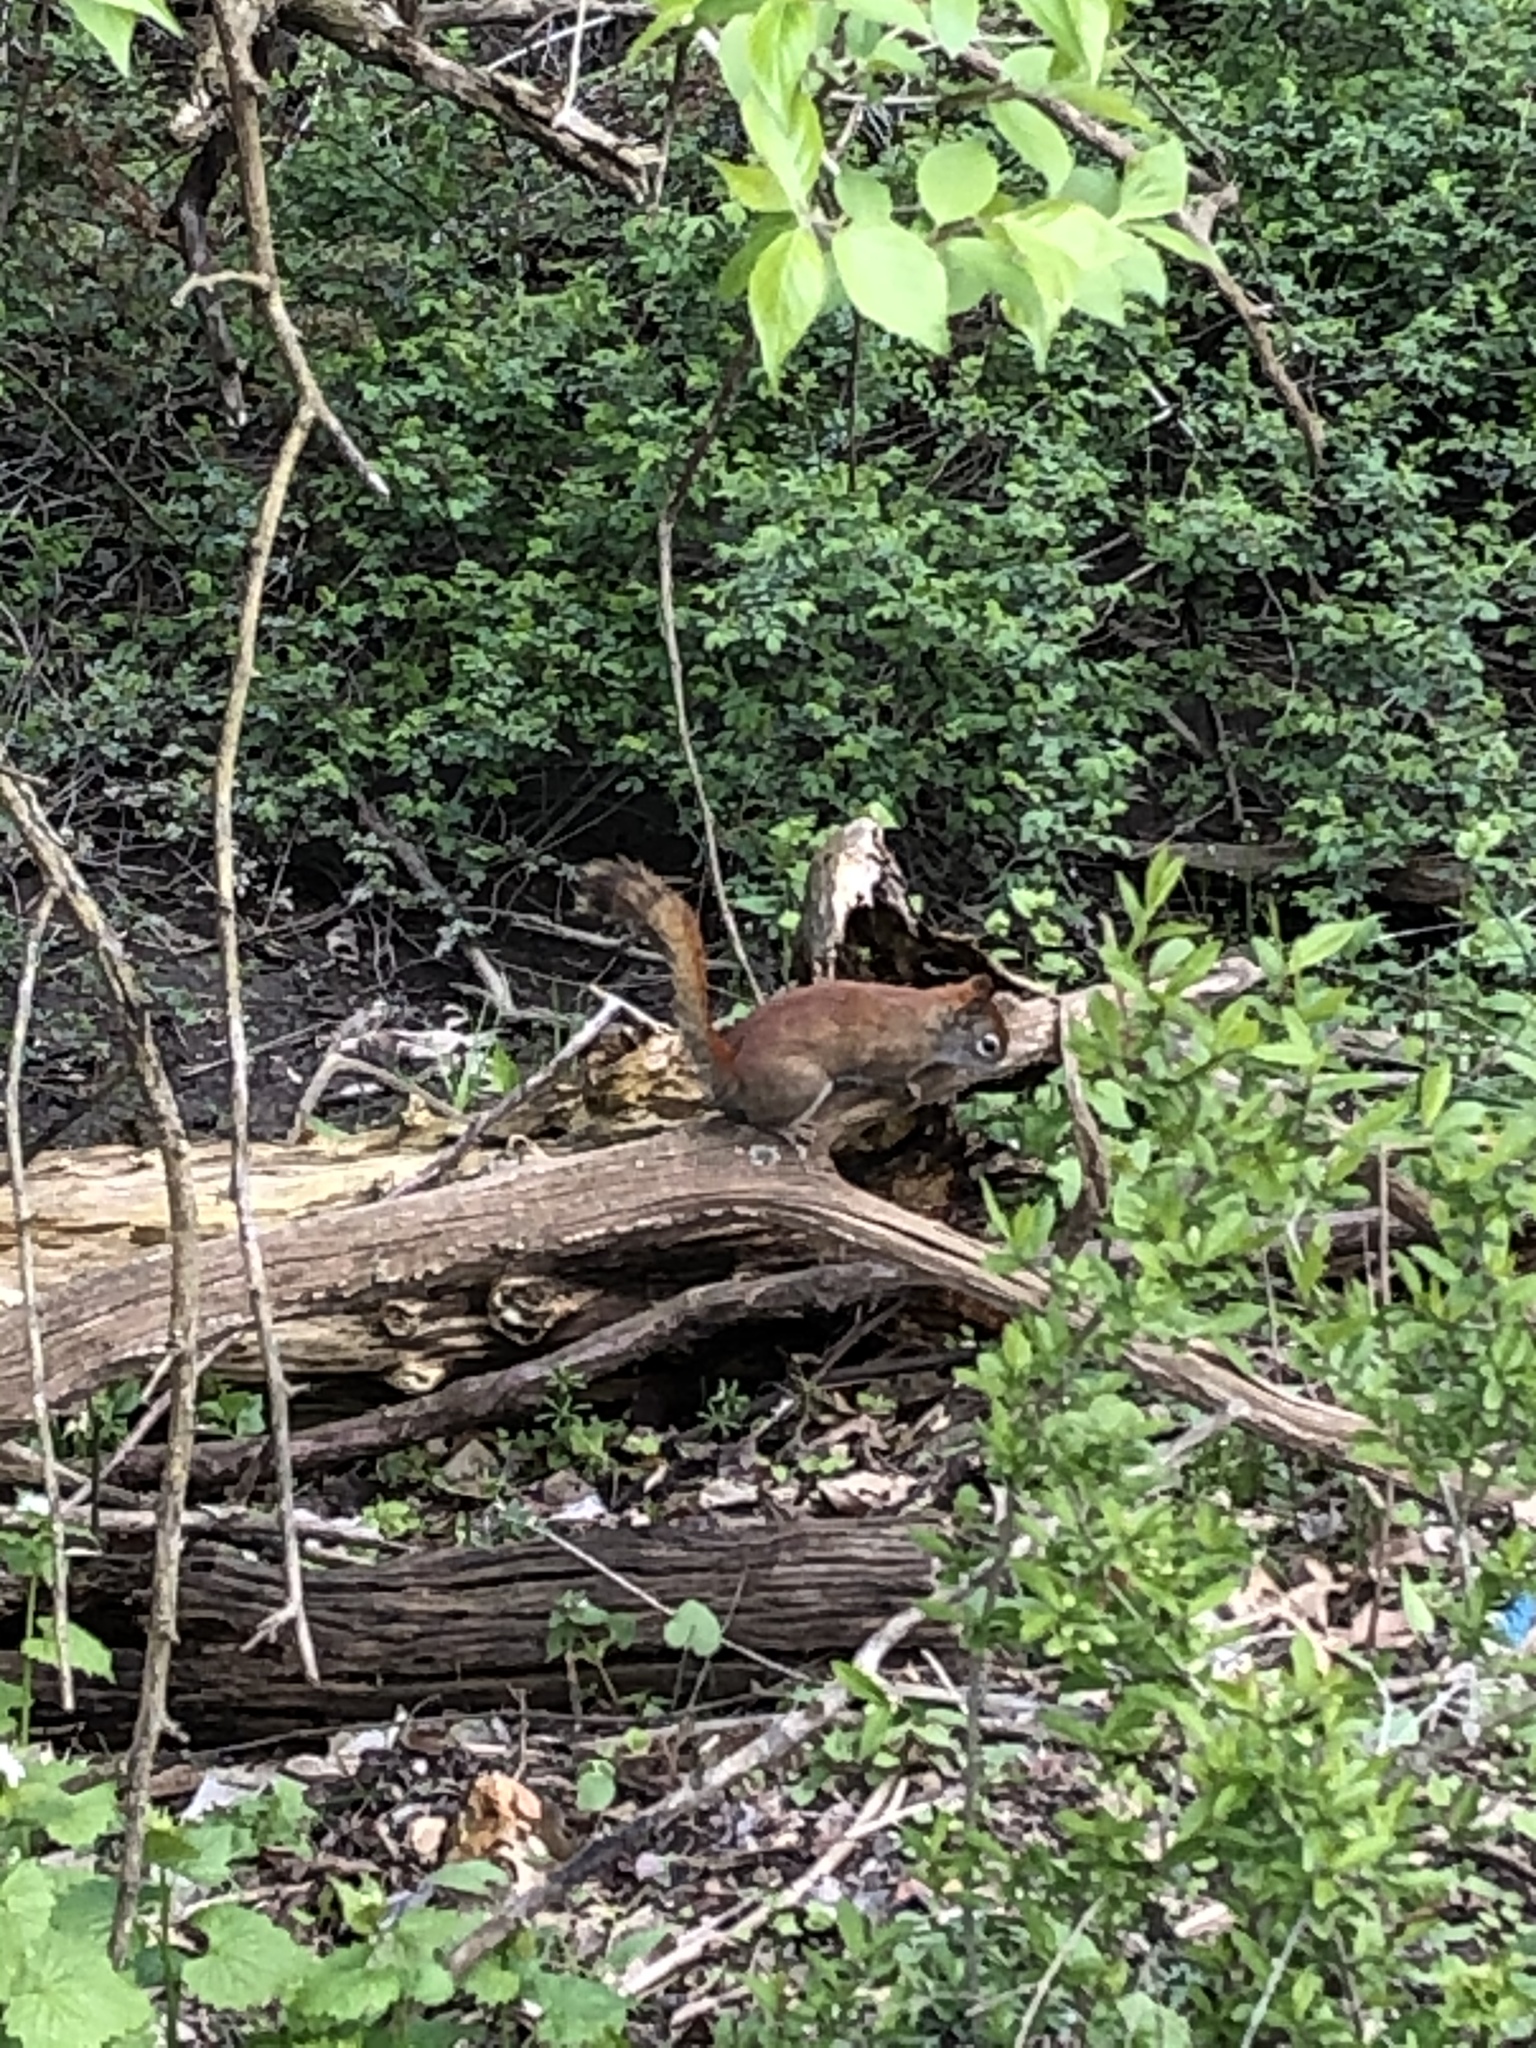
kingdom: Animalia
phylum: Chordata
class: Mammalia
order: Rodentia
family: Sciuridae
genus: Tamiasciurus
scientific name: Tamiasciurus hudsonicus
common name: Red squirrel
